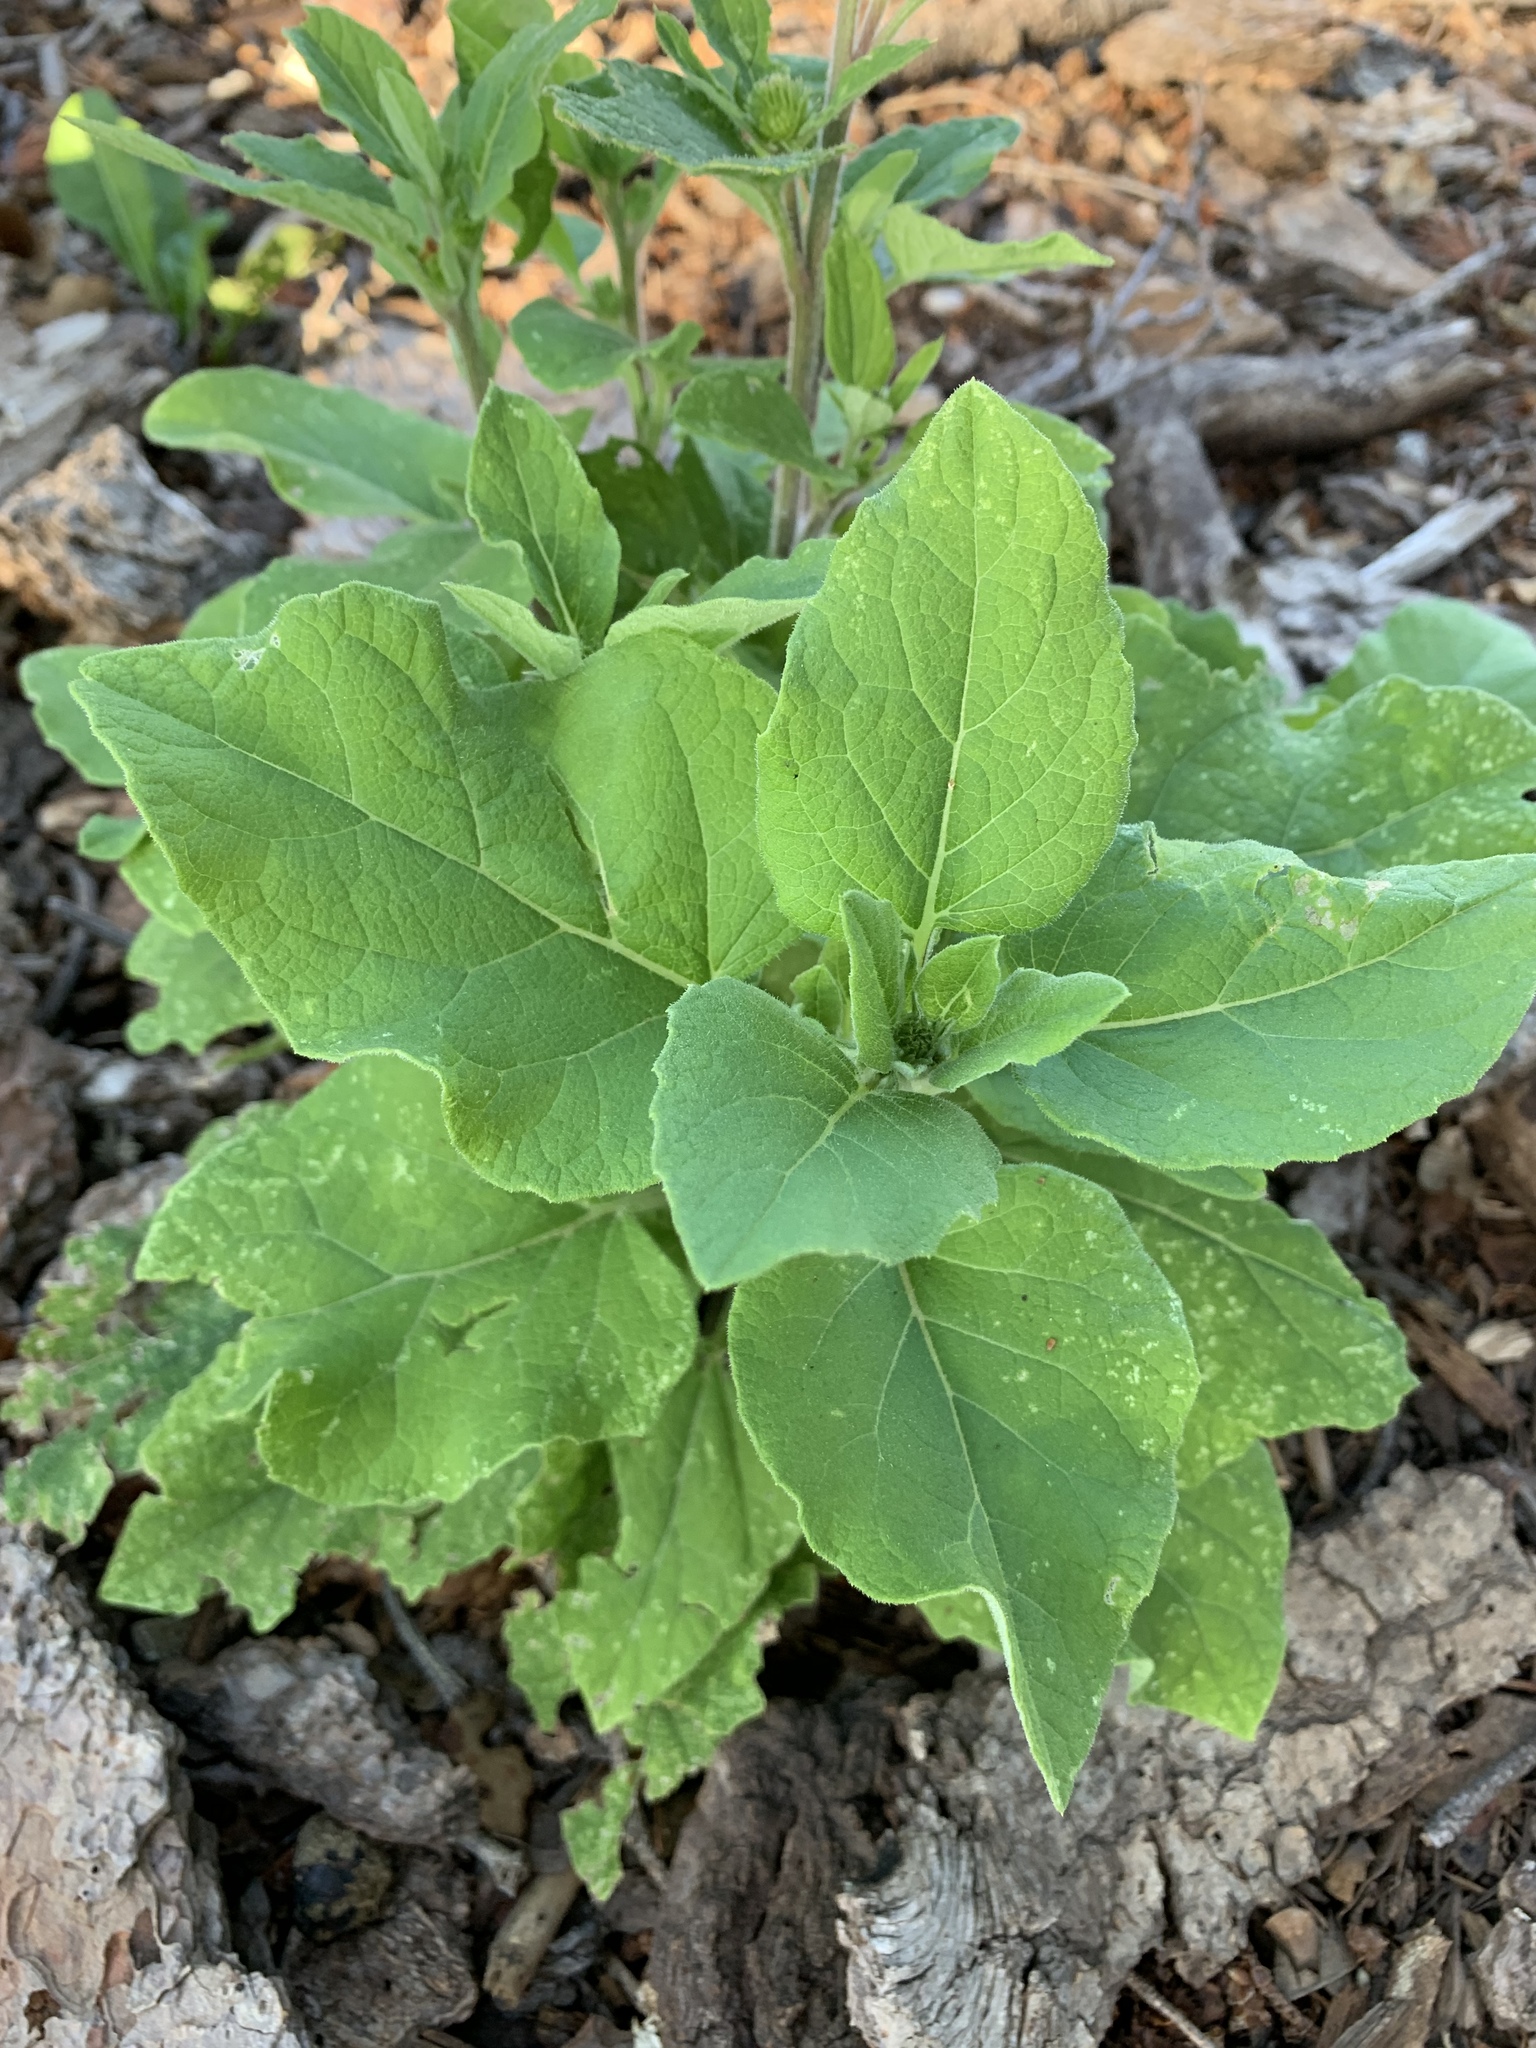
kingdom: Plantae
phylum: Tracheophyta
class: Magnoliopsida
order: Asterales
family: Asteraceae
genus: Arctium
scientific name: Arctium lappa
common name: Greater burdock
